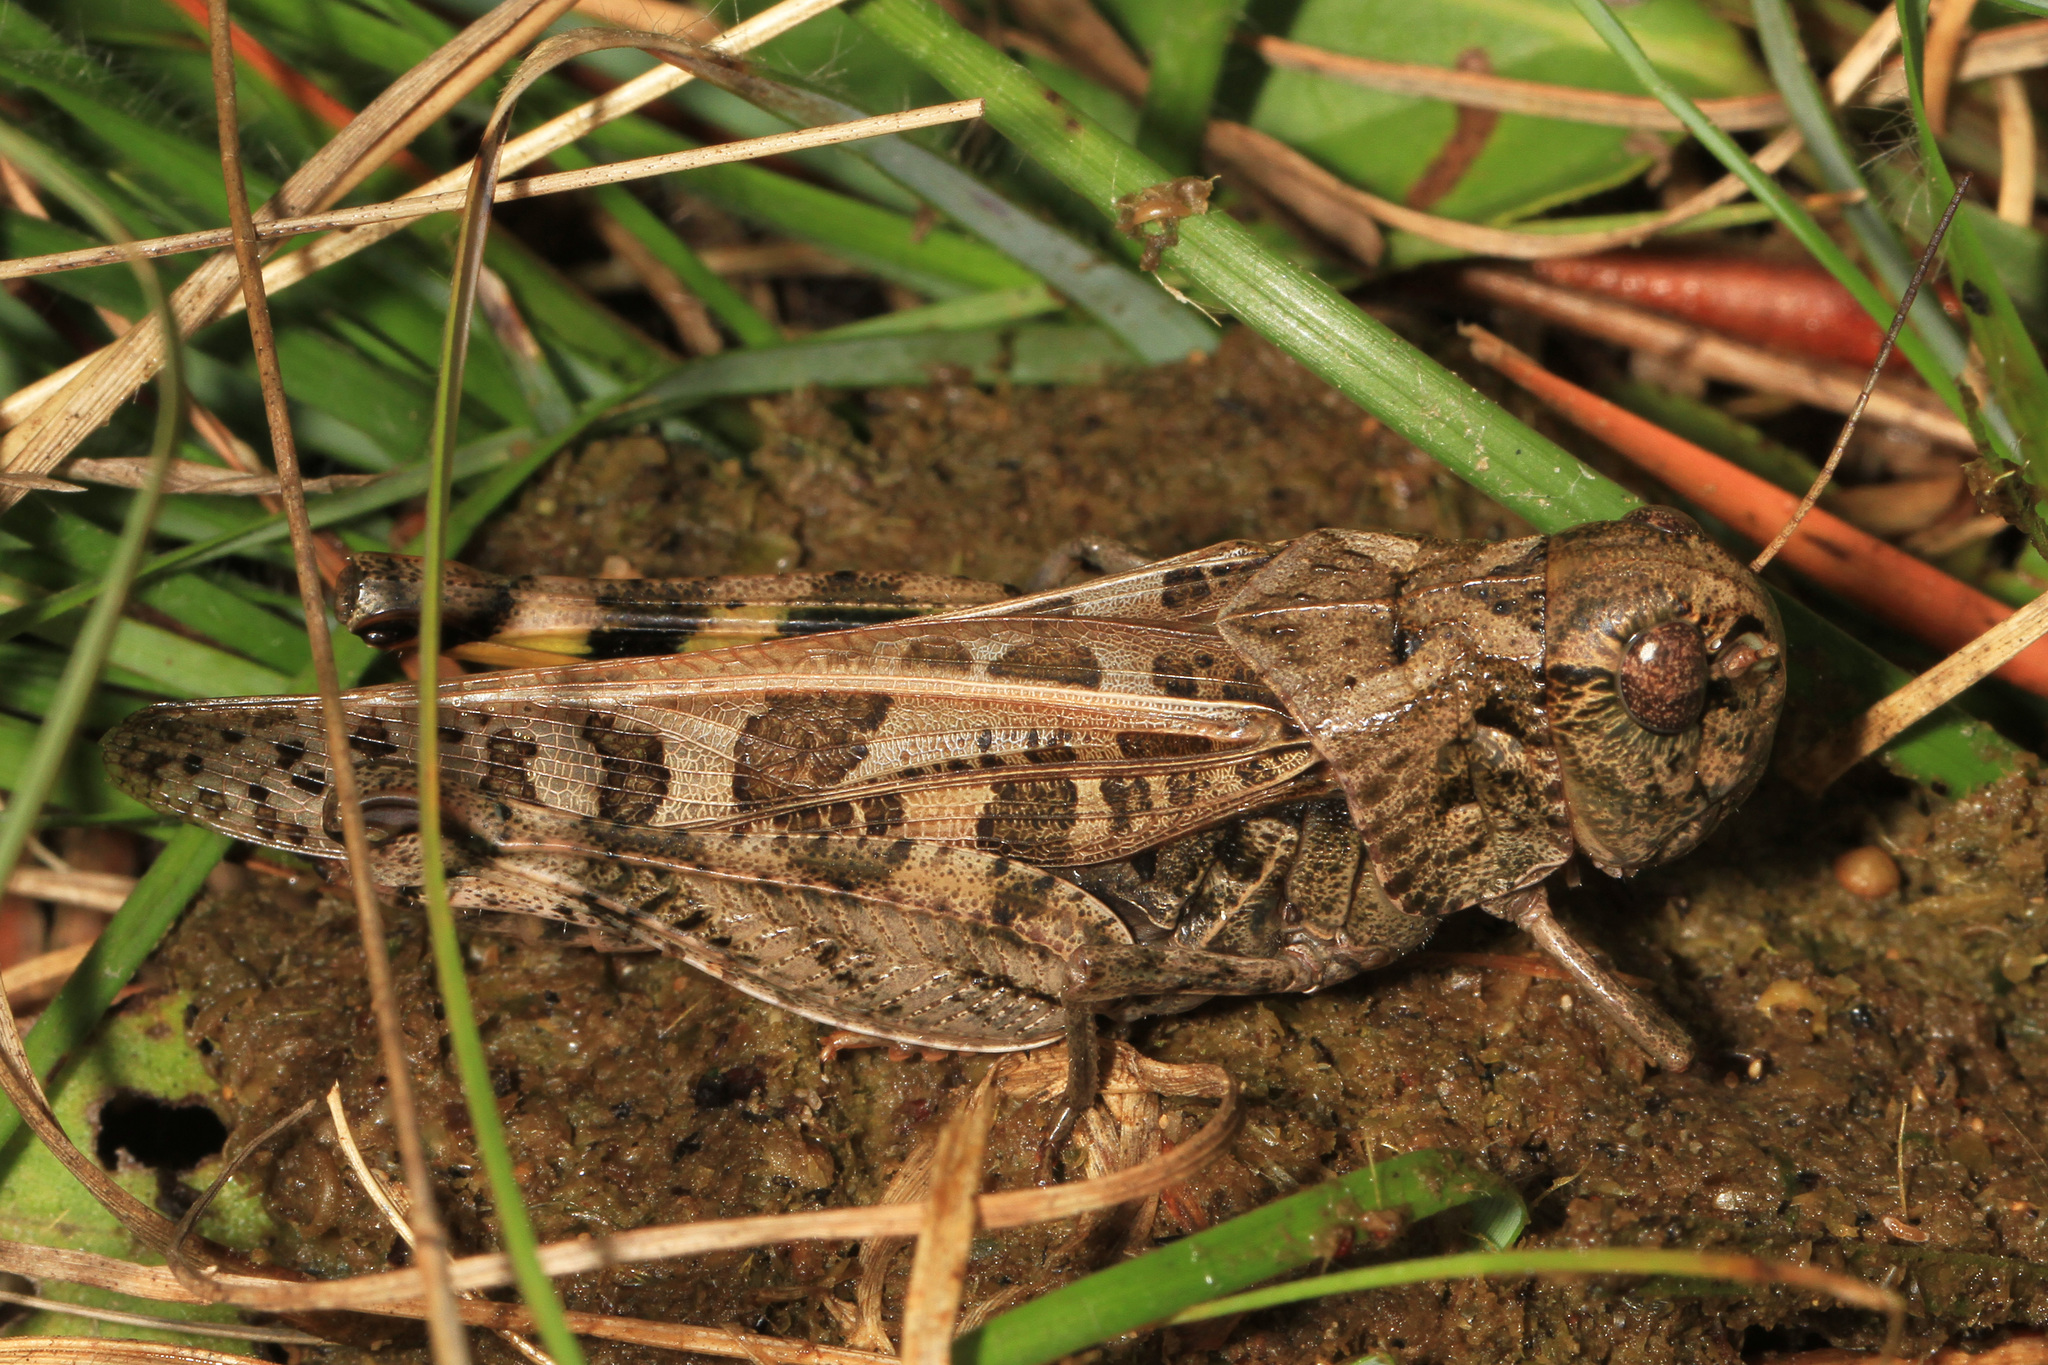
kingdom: Animalia
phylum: Arthropoda
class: Insecta
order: Orthoptera
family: Acrididae
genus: Hippiscus
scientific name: Hippiscus ocelote
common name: Wrinkled grasshopper
